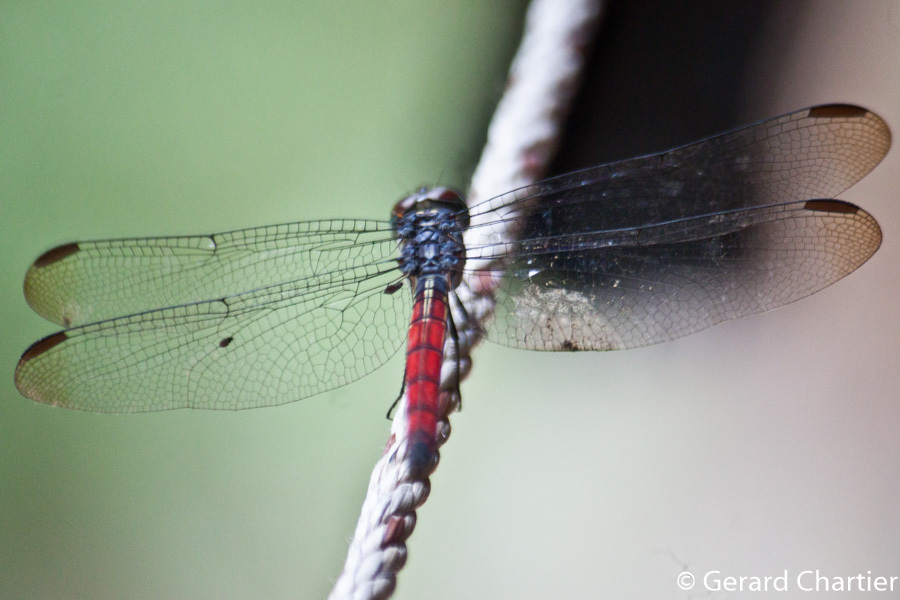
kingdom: Animalia
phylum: Arthropoda
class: Insecta
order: Odonata
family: Libellulidae
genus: Lathrecista
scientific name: Lathrecista asiatica
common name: Scarlet grenadier
